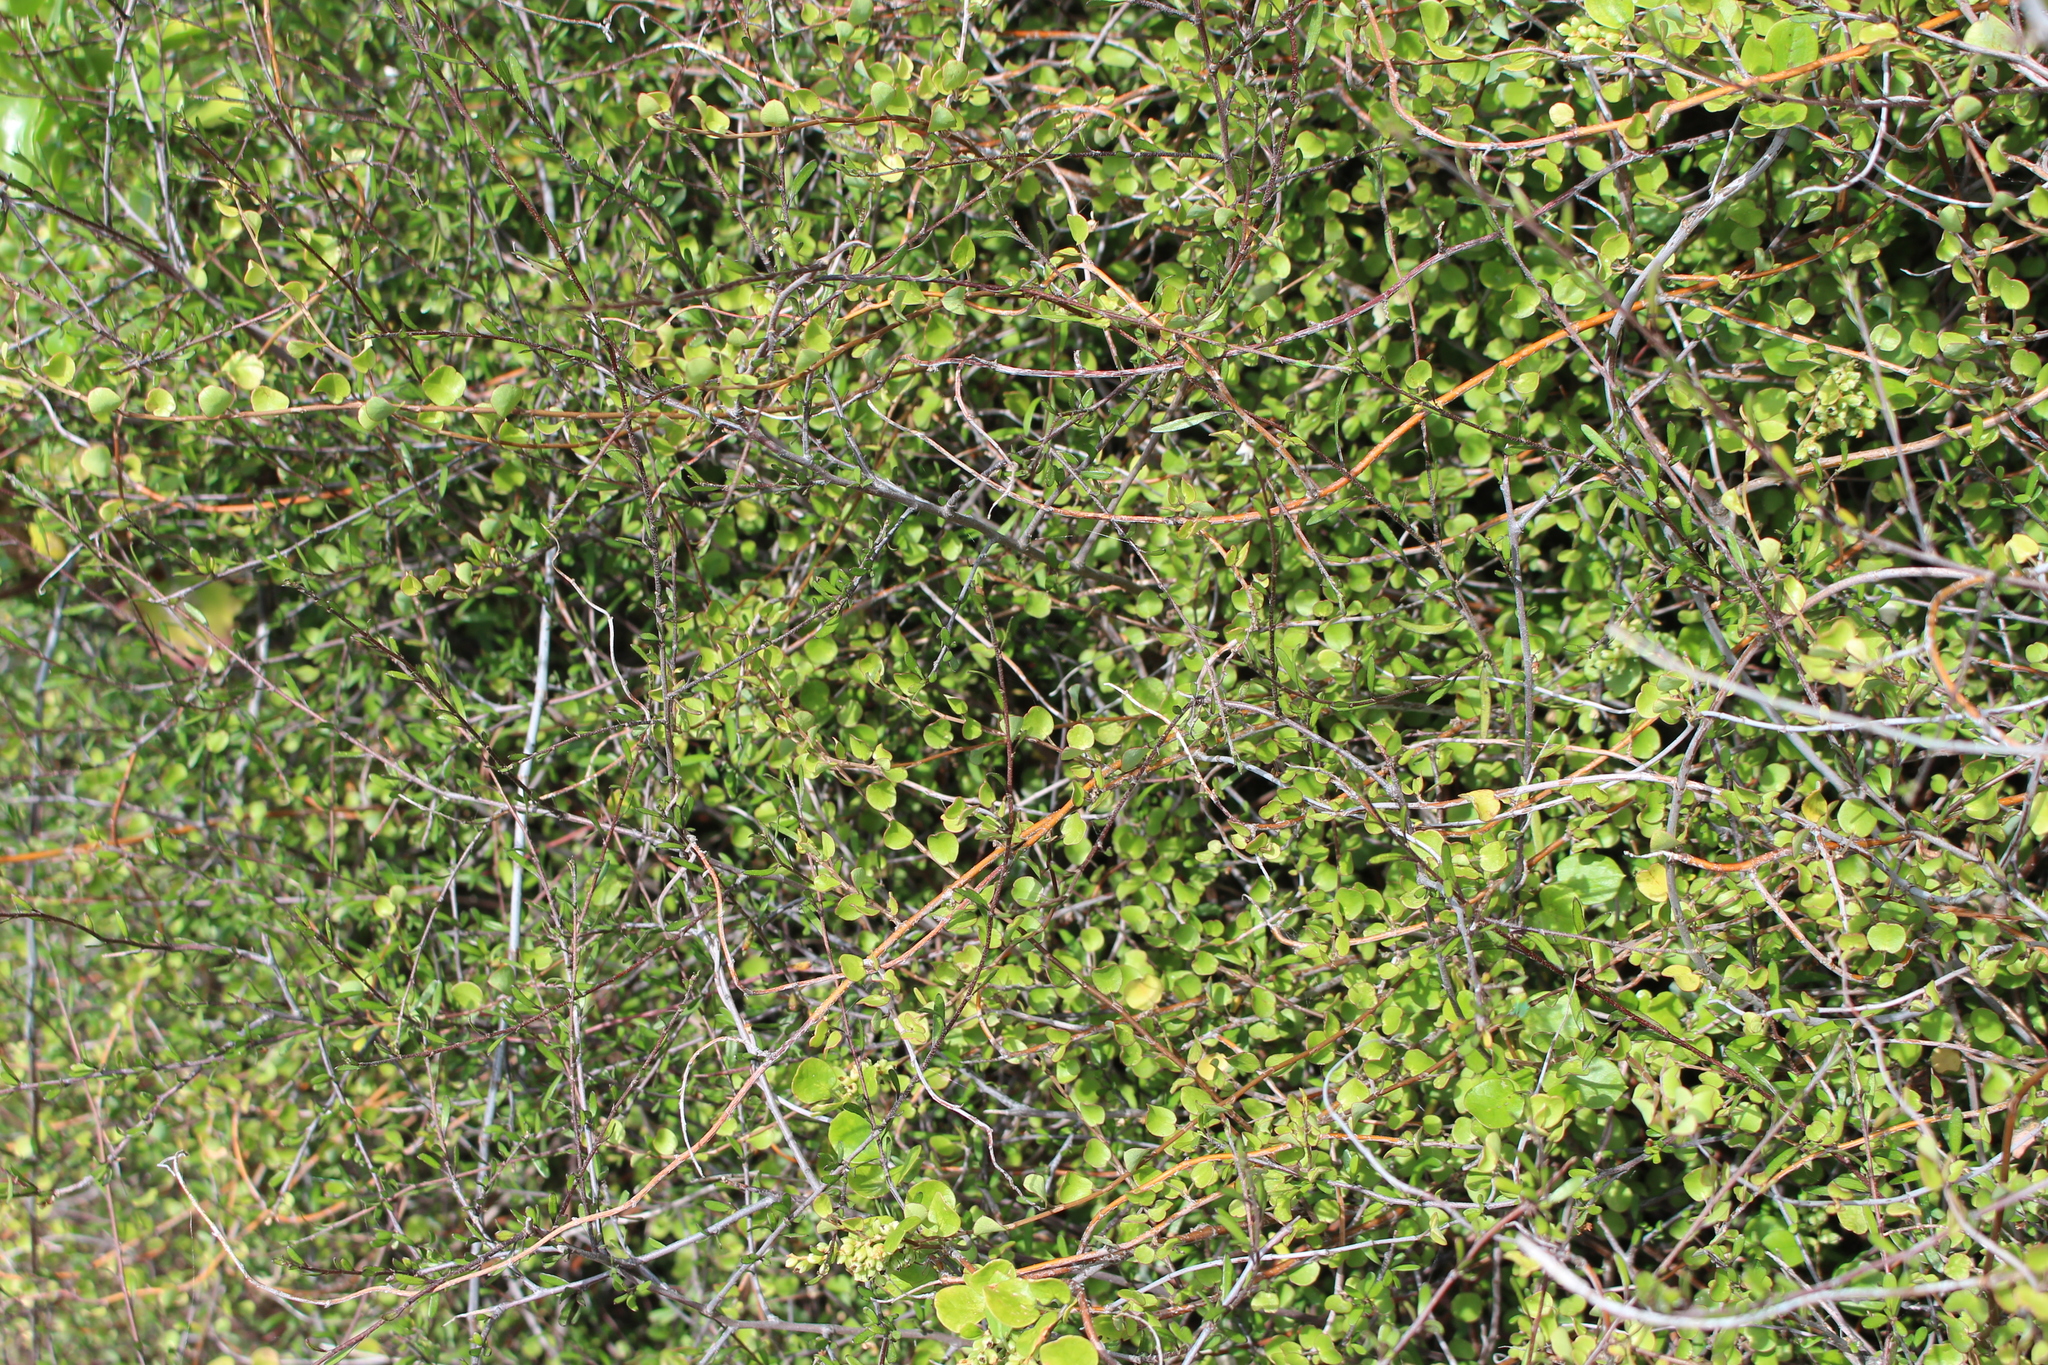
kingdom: Plantae
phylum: Tracheophyta
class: Magnoliopsida
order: Caryophyllales
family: Polygonaceae
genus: Muehlenbeckia
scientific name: Muehlenbeckia complexa
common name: Wireplant
